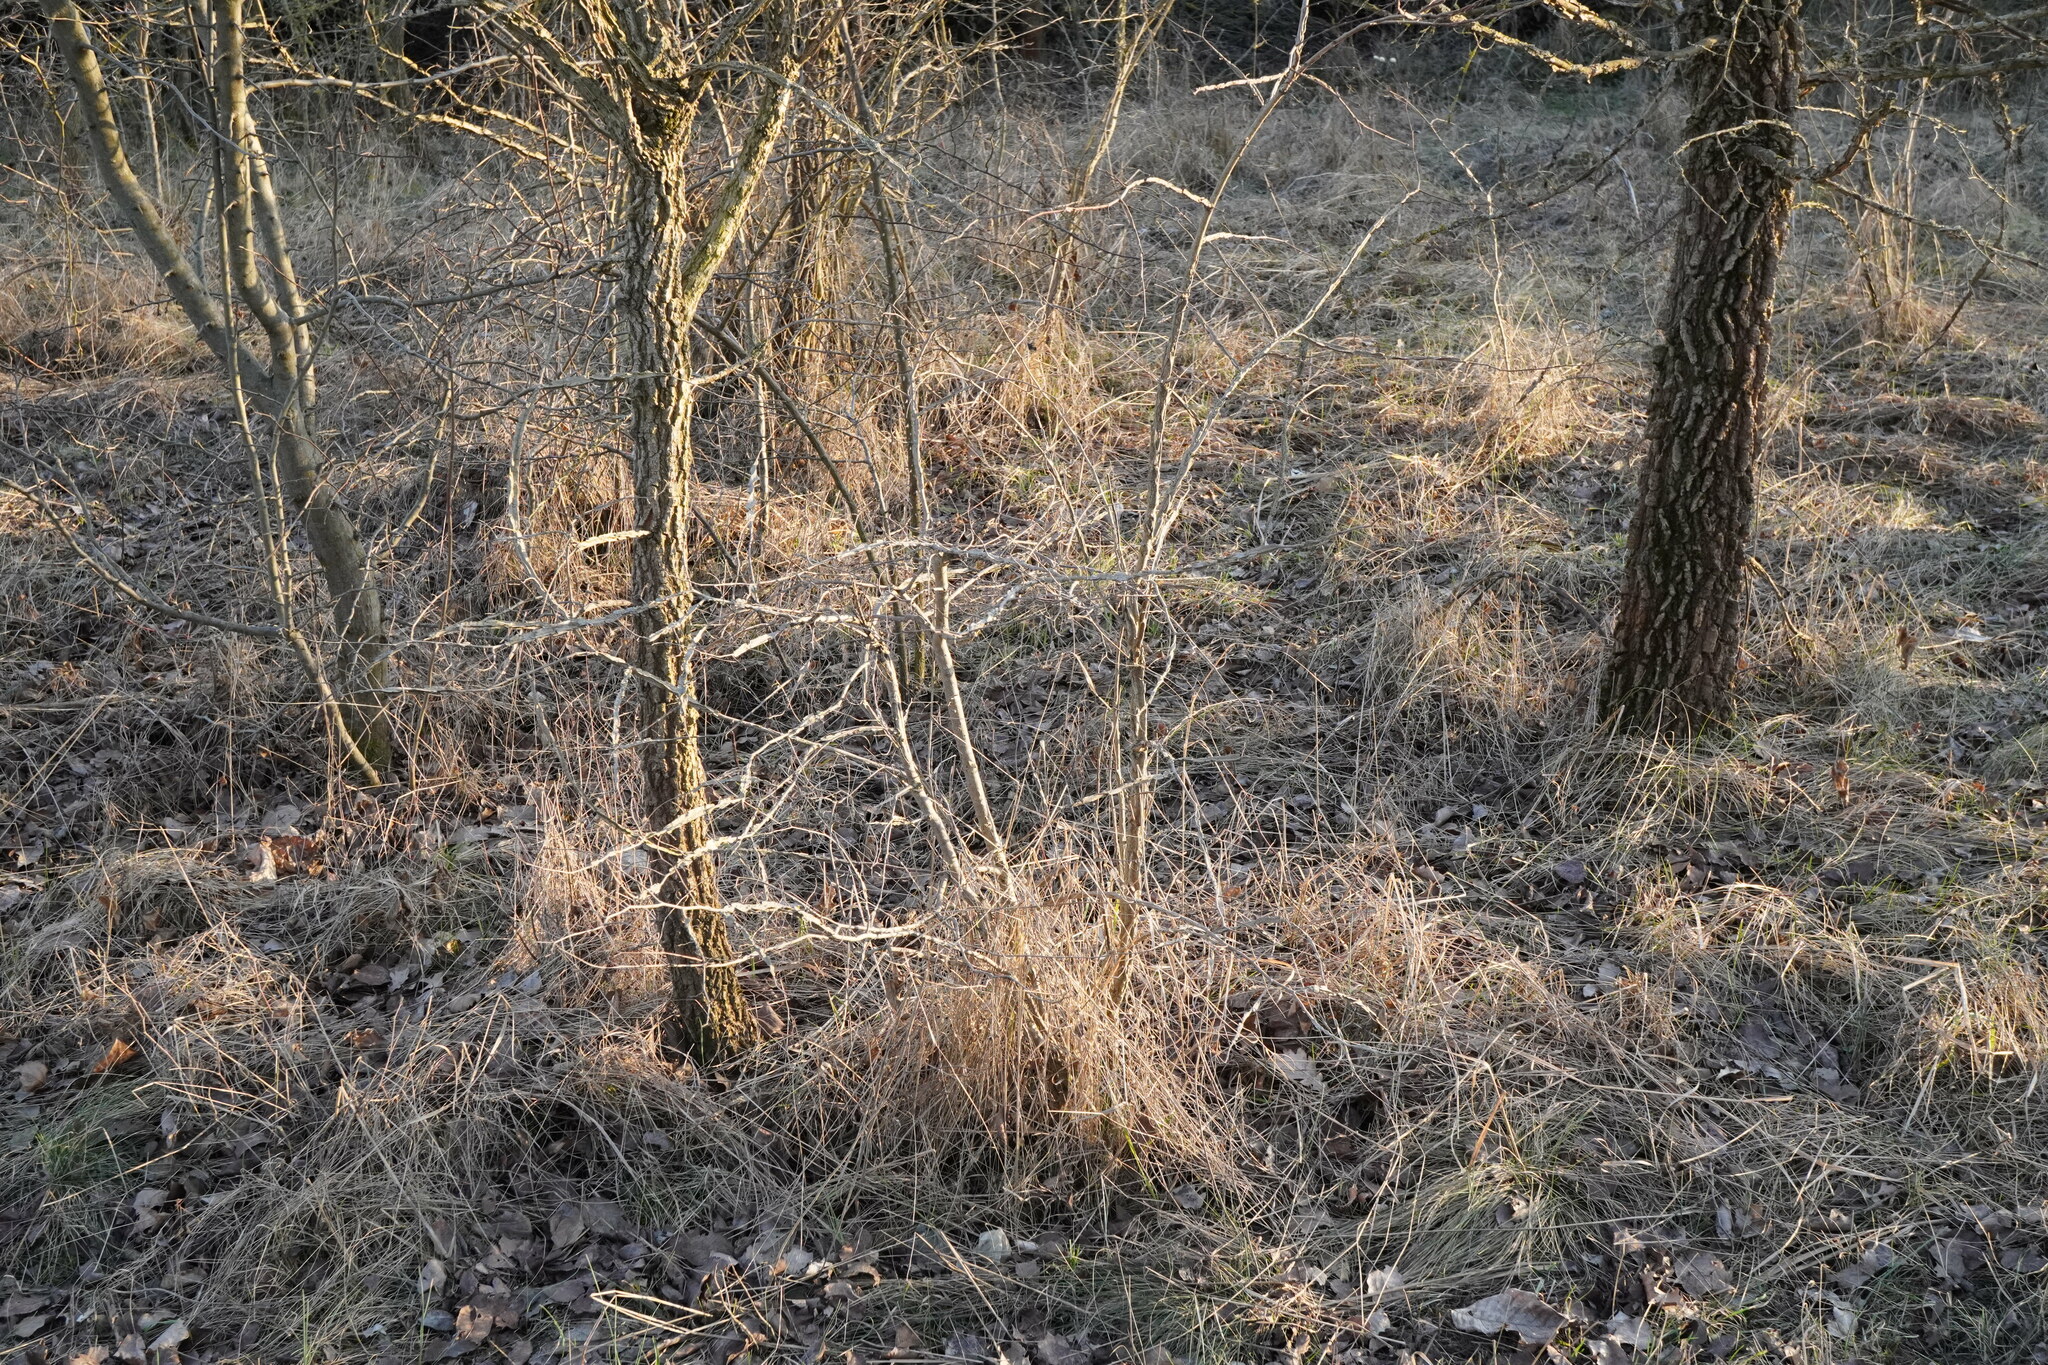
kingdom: Plantae
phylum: Tracheophyta
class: Magnoliopsida
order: Rosales
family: Ulmaceae
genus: Ulmus
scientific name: Ulmus minor
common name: Small-leaved elm
